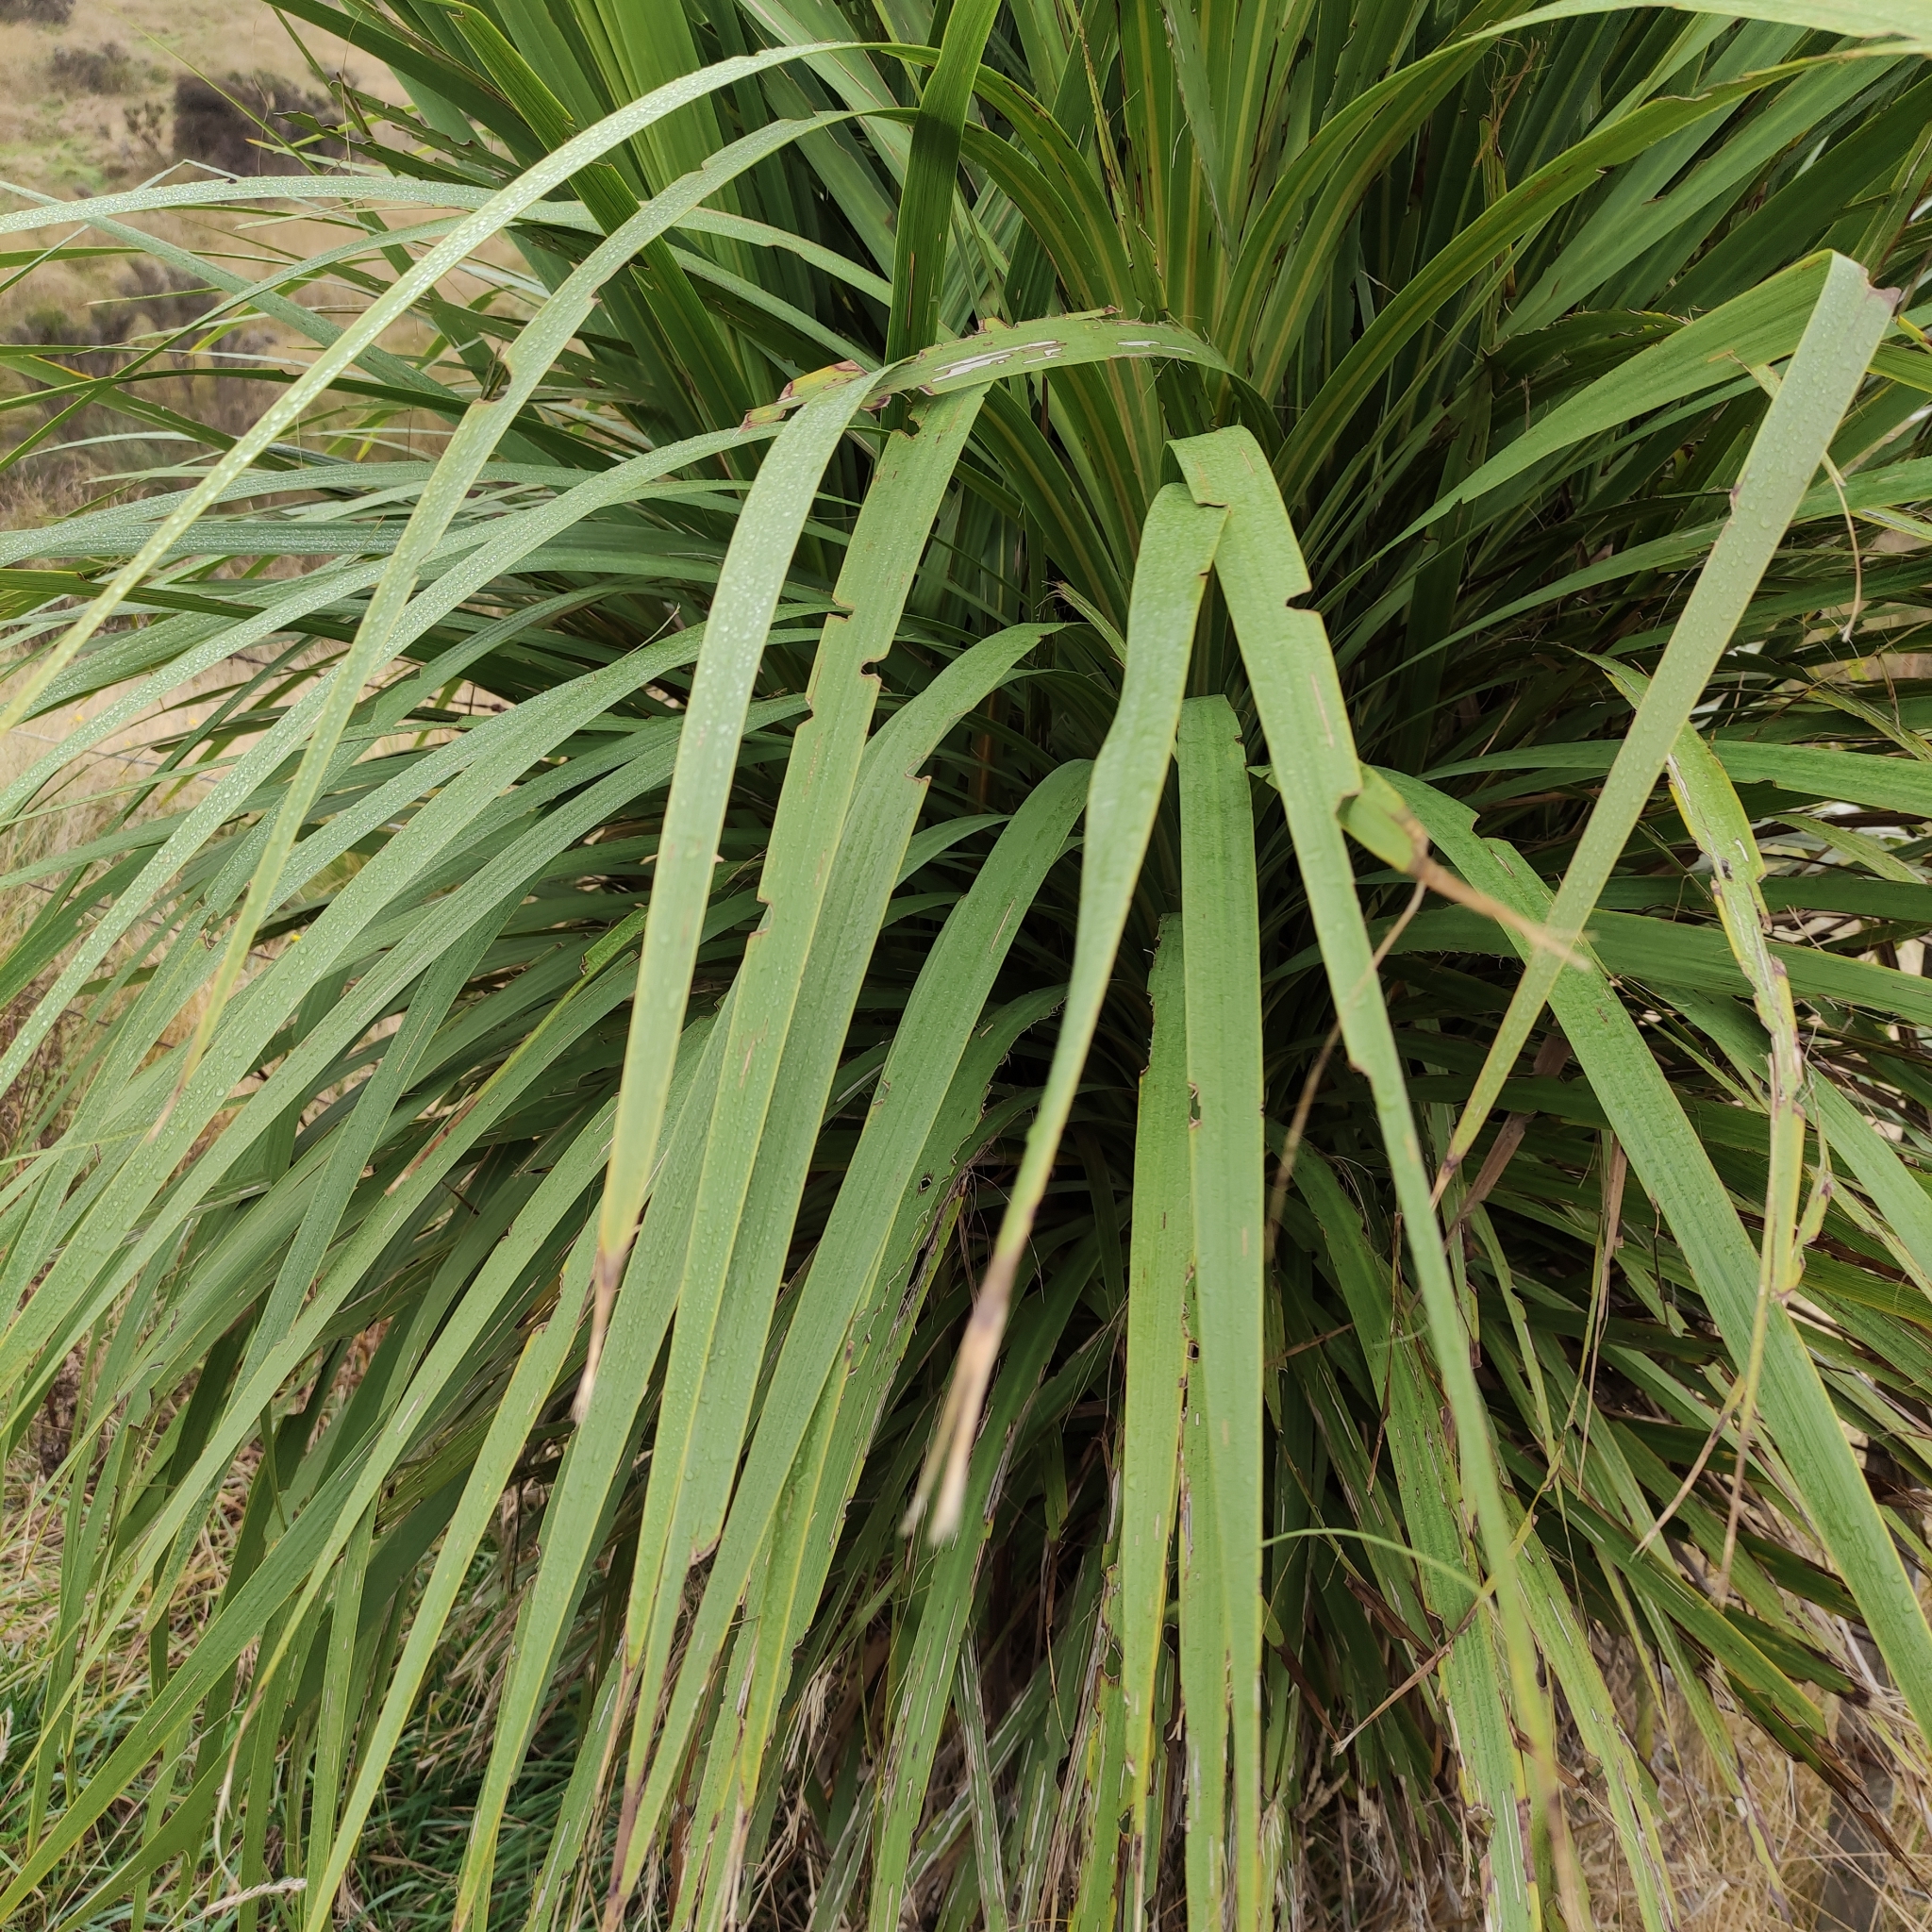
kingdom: Plantae
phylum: Tracheophyta
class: Liliopsida
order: Asparagales
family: Asparagaceae
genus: Cordyline
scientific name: Cordyline australis
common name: Cabbage-palm
